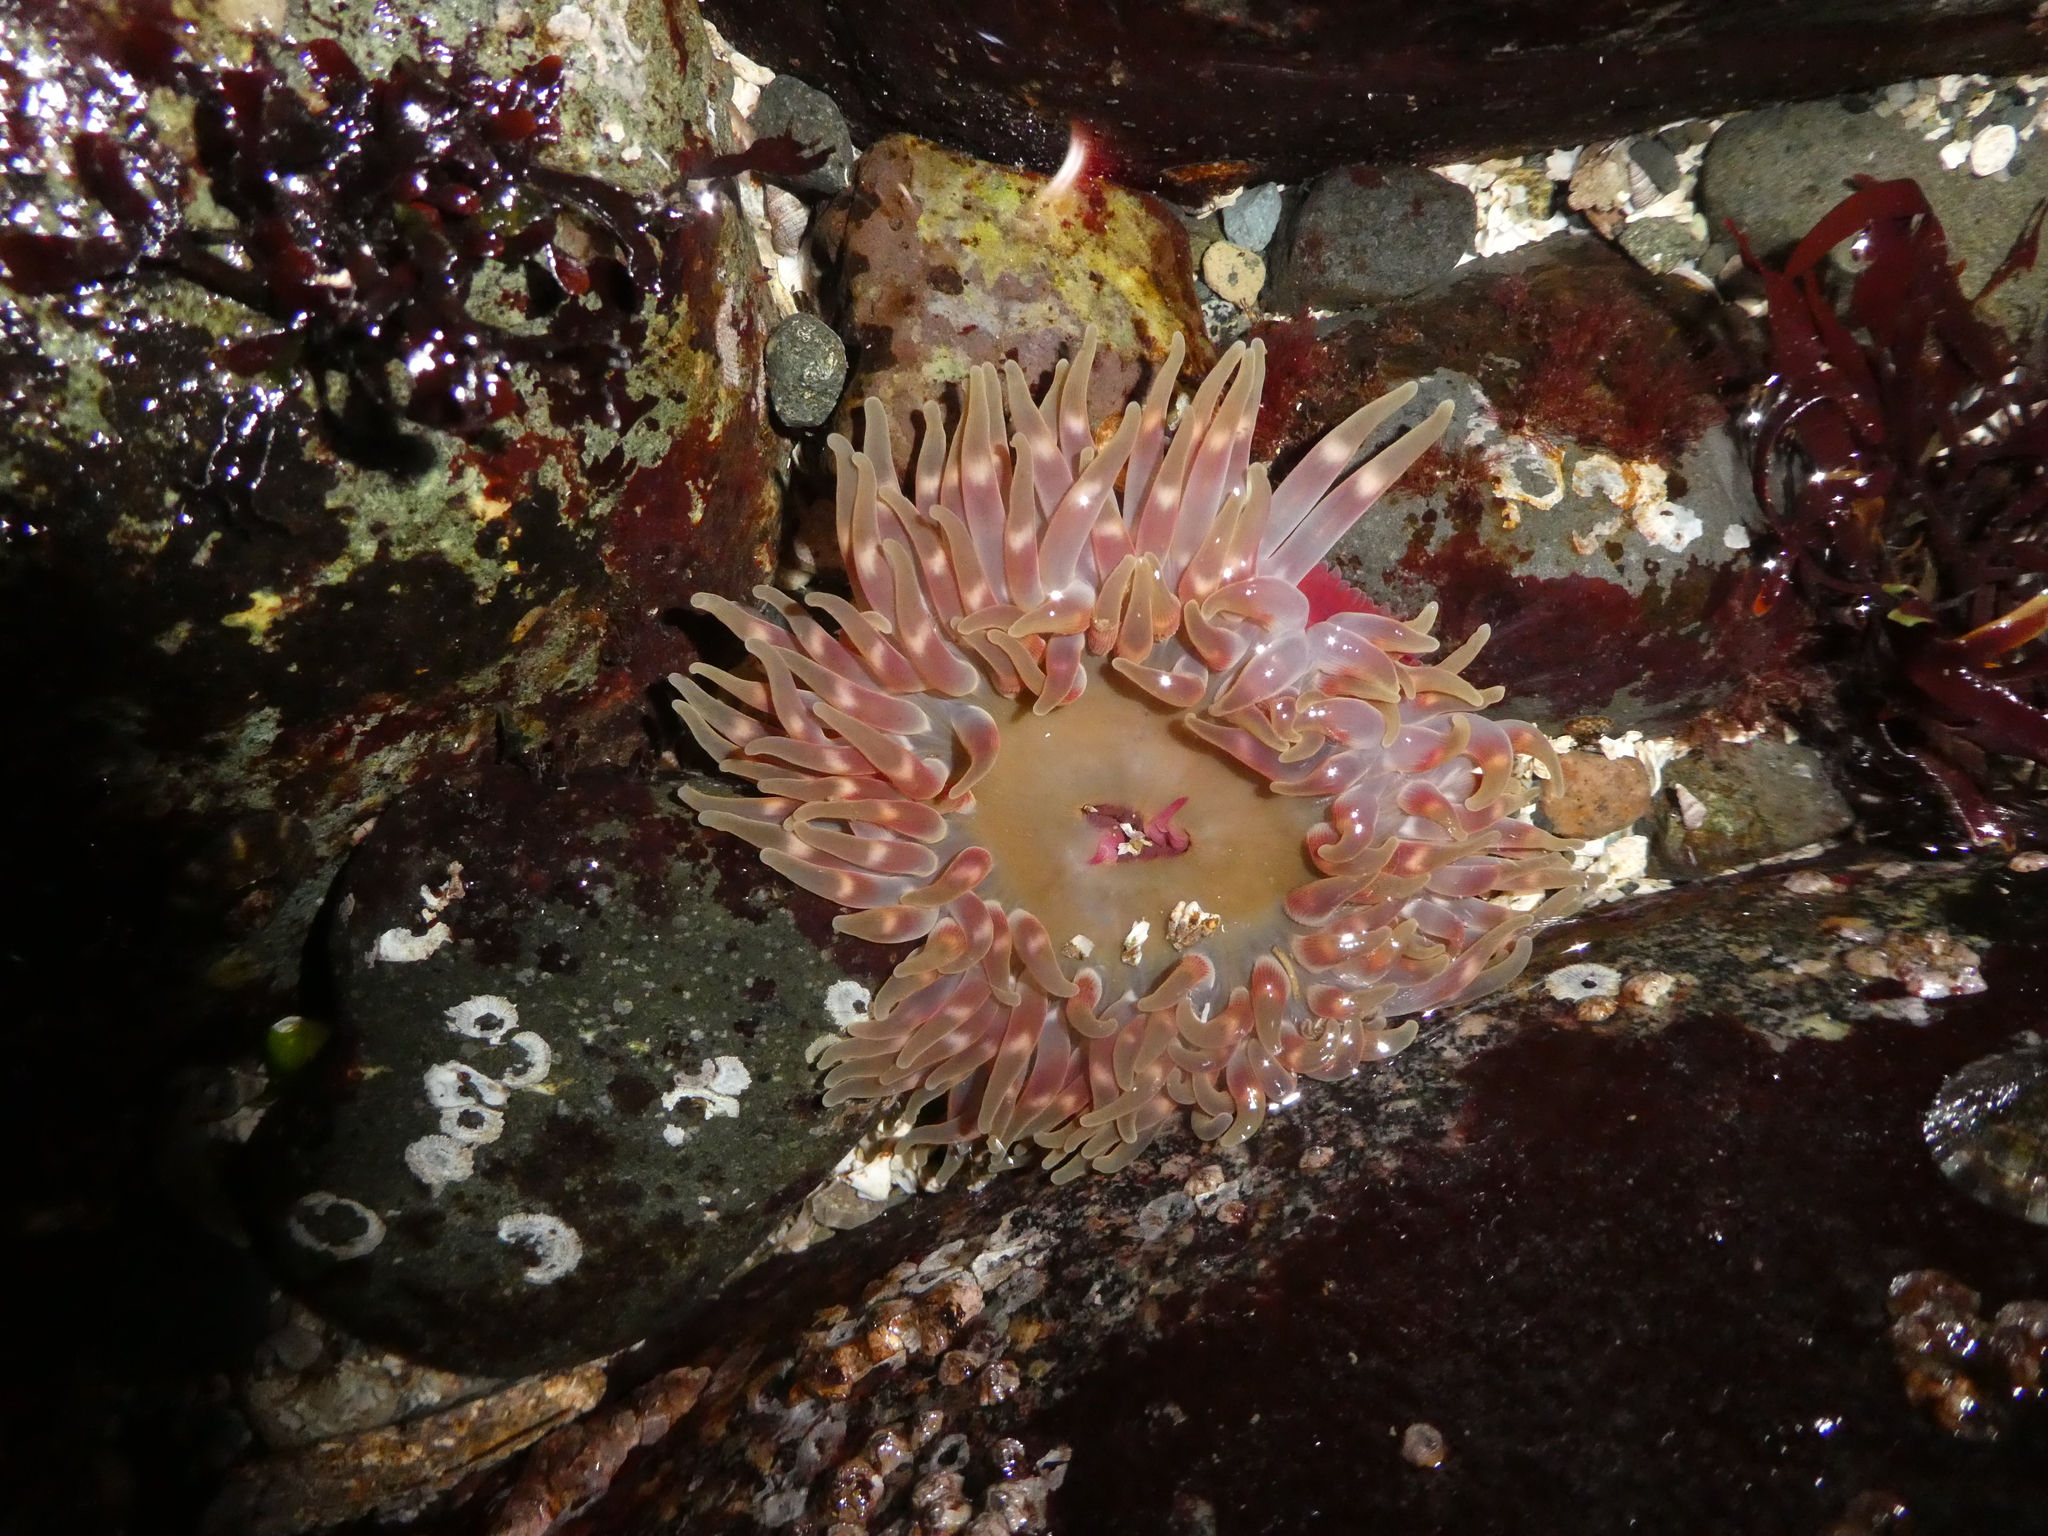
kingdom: Animalia
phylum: Cnidaria
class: Anthozoa
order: Actiniaria
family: Actiniidae
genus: Urticina
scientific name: Urticina clandestina
